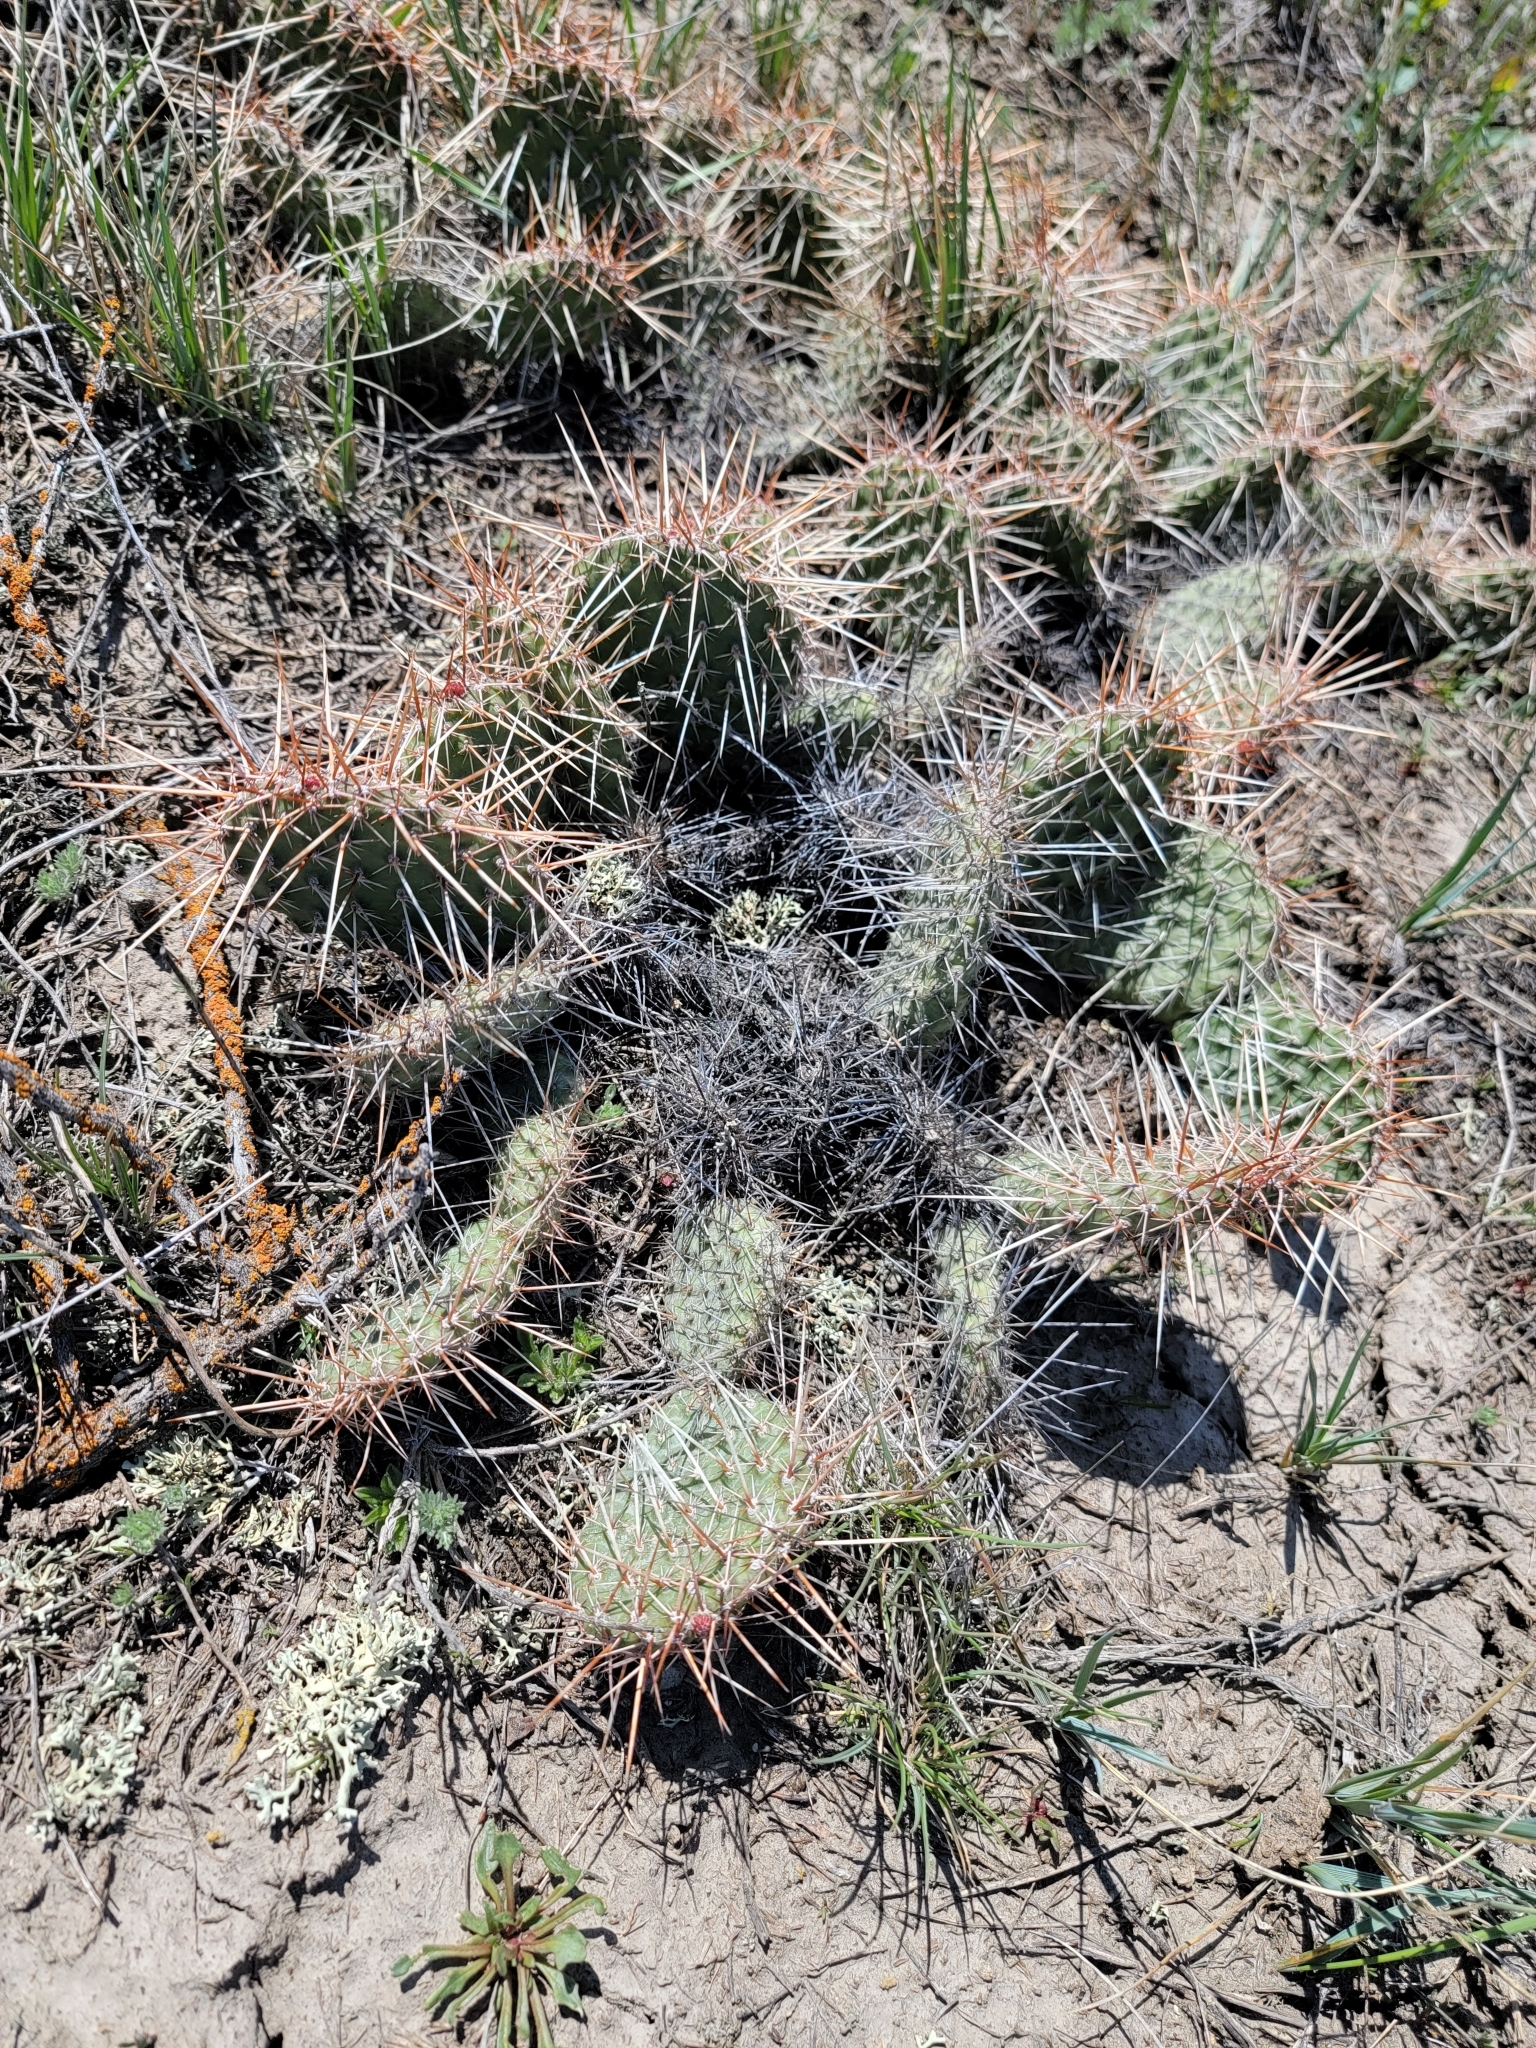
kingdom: Plantae
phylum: Tracheophyta
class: Magnoliopsida
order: Caryophyllales
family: Cactaceae
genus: Opuntia
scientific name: Opuntia polyacantha
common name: Plains prickly-pear
